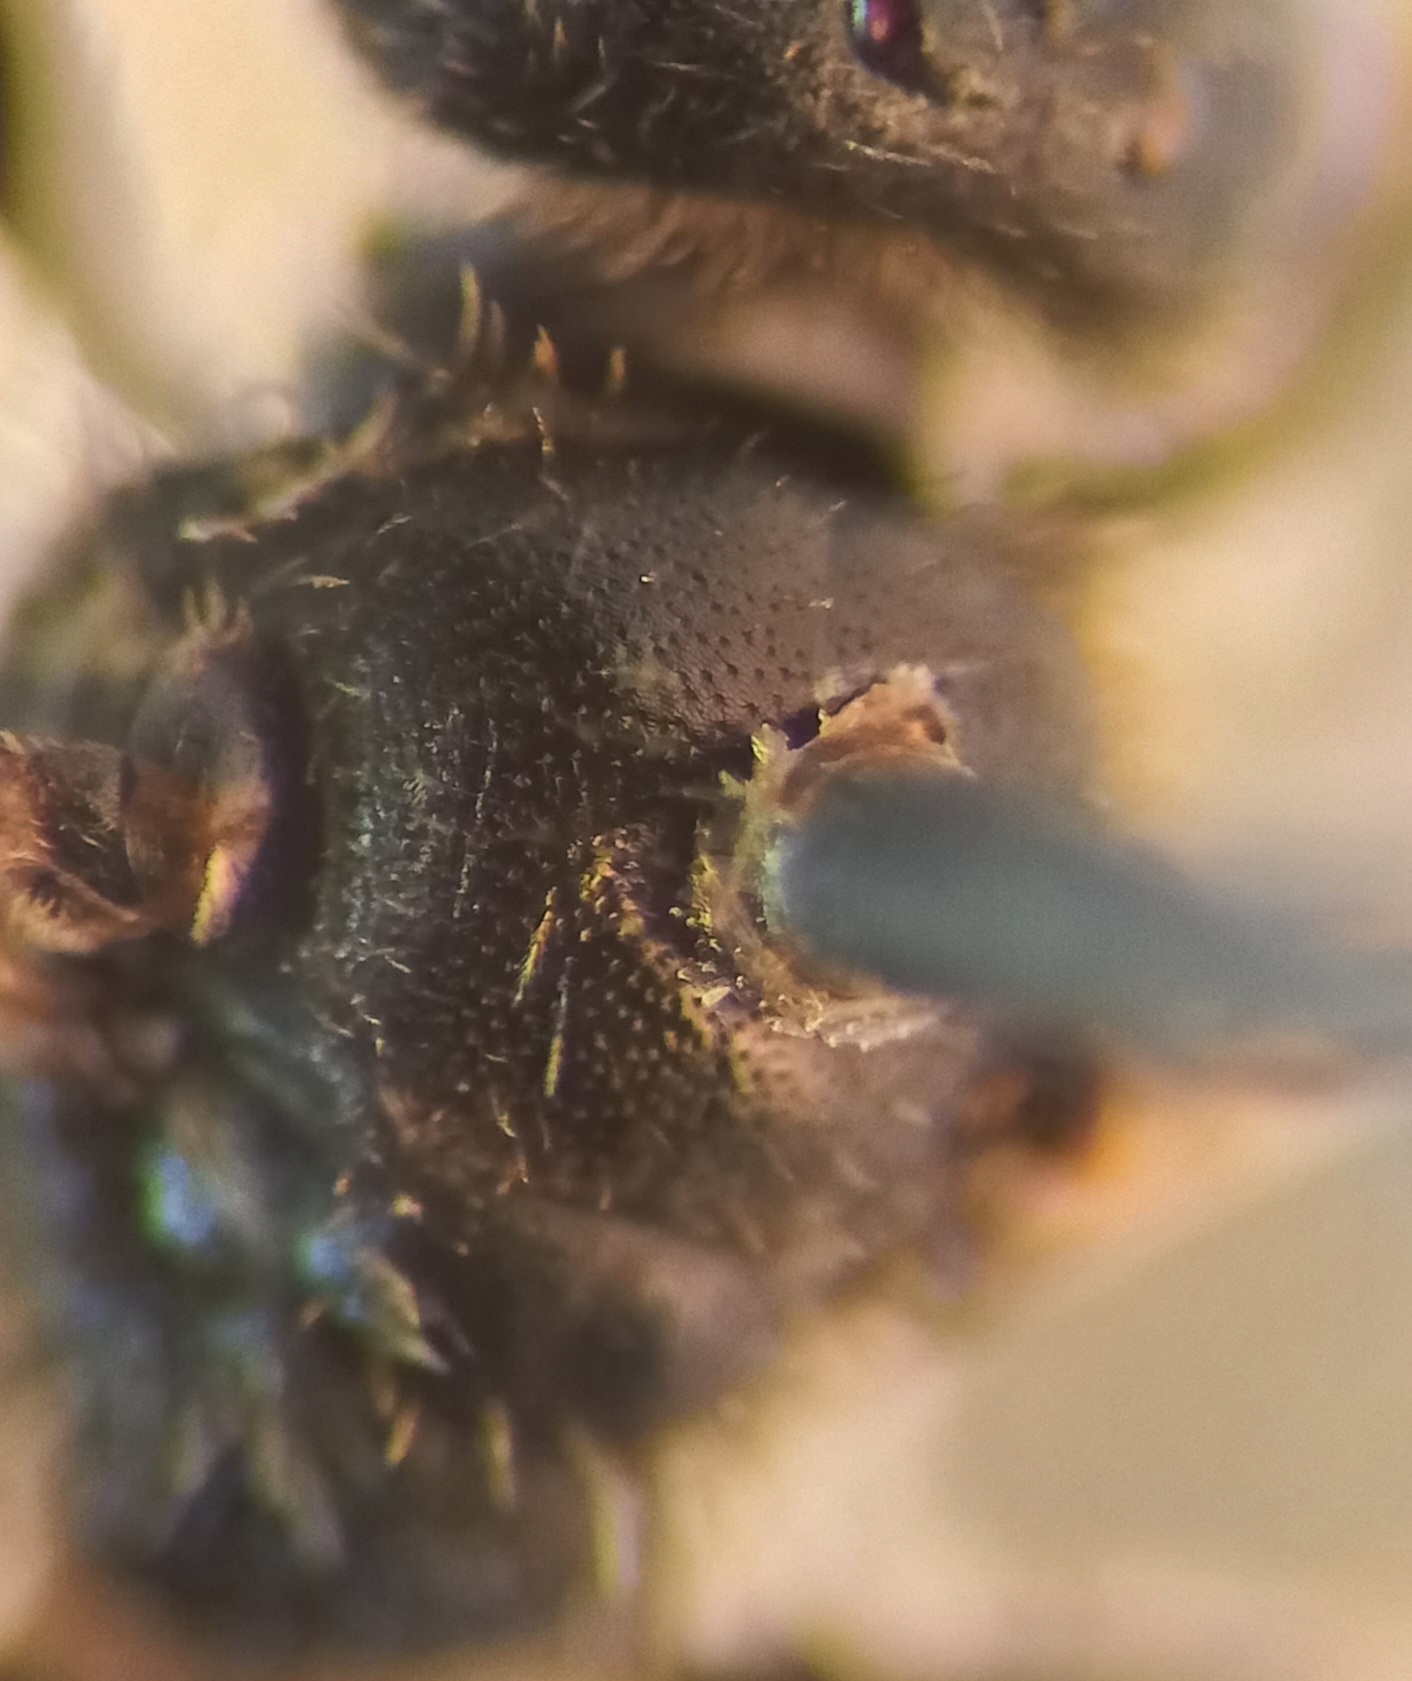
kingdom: Animalia
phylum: Arthropoda
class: Insecta
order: Hymenoptera
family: Halictidae
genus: Lasioglossum
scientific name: Lasioglossum pauxillum
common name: Lobe-spurred furrow bee
